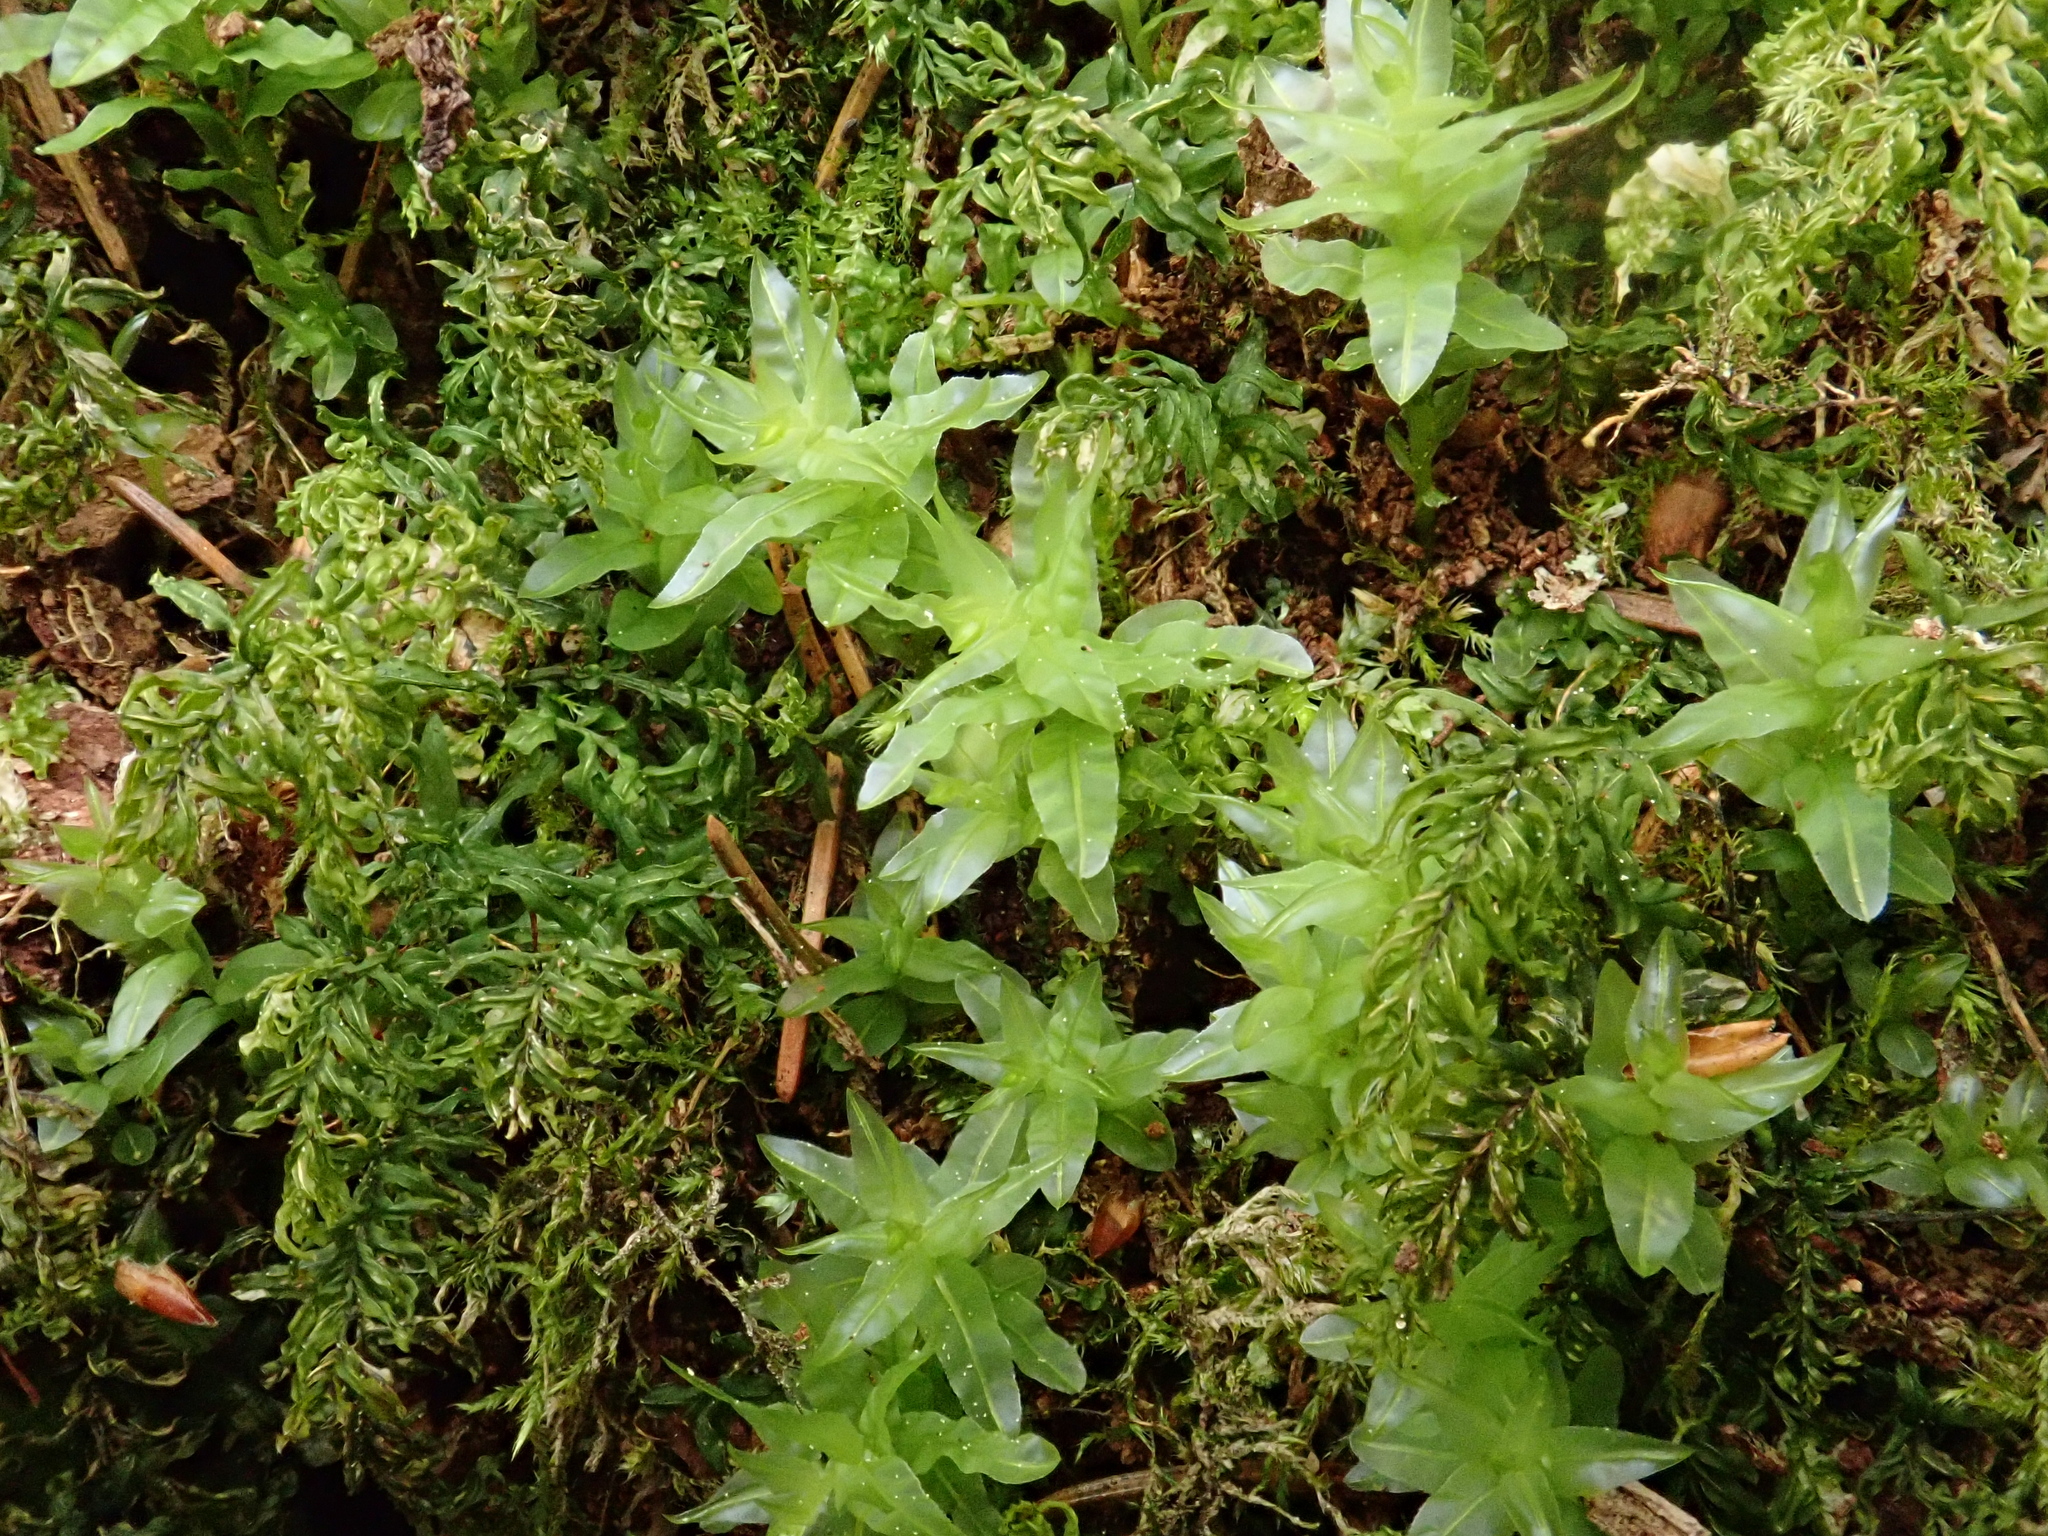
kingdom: Plantae
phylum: Bryophyta
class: Bryopsida
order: Bryales
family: Mniaceae
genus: Plagiomnium
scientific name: Plagiomnium undulatum
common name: Hart's-tongue thyme-moss
